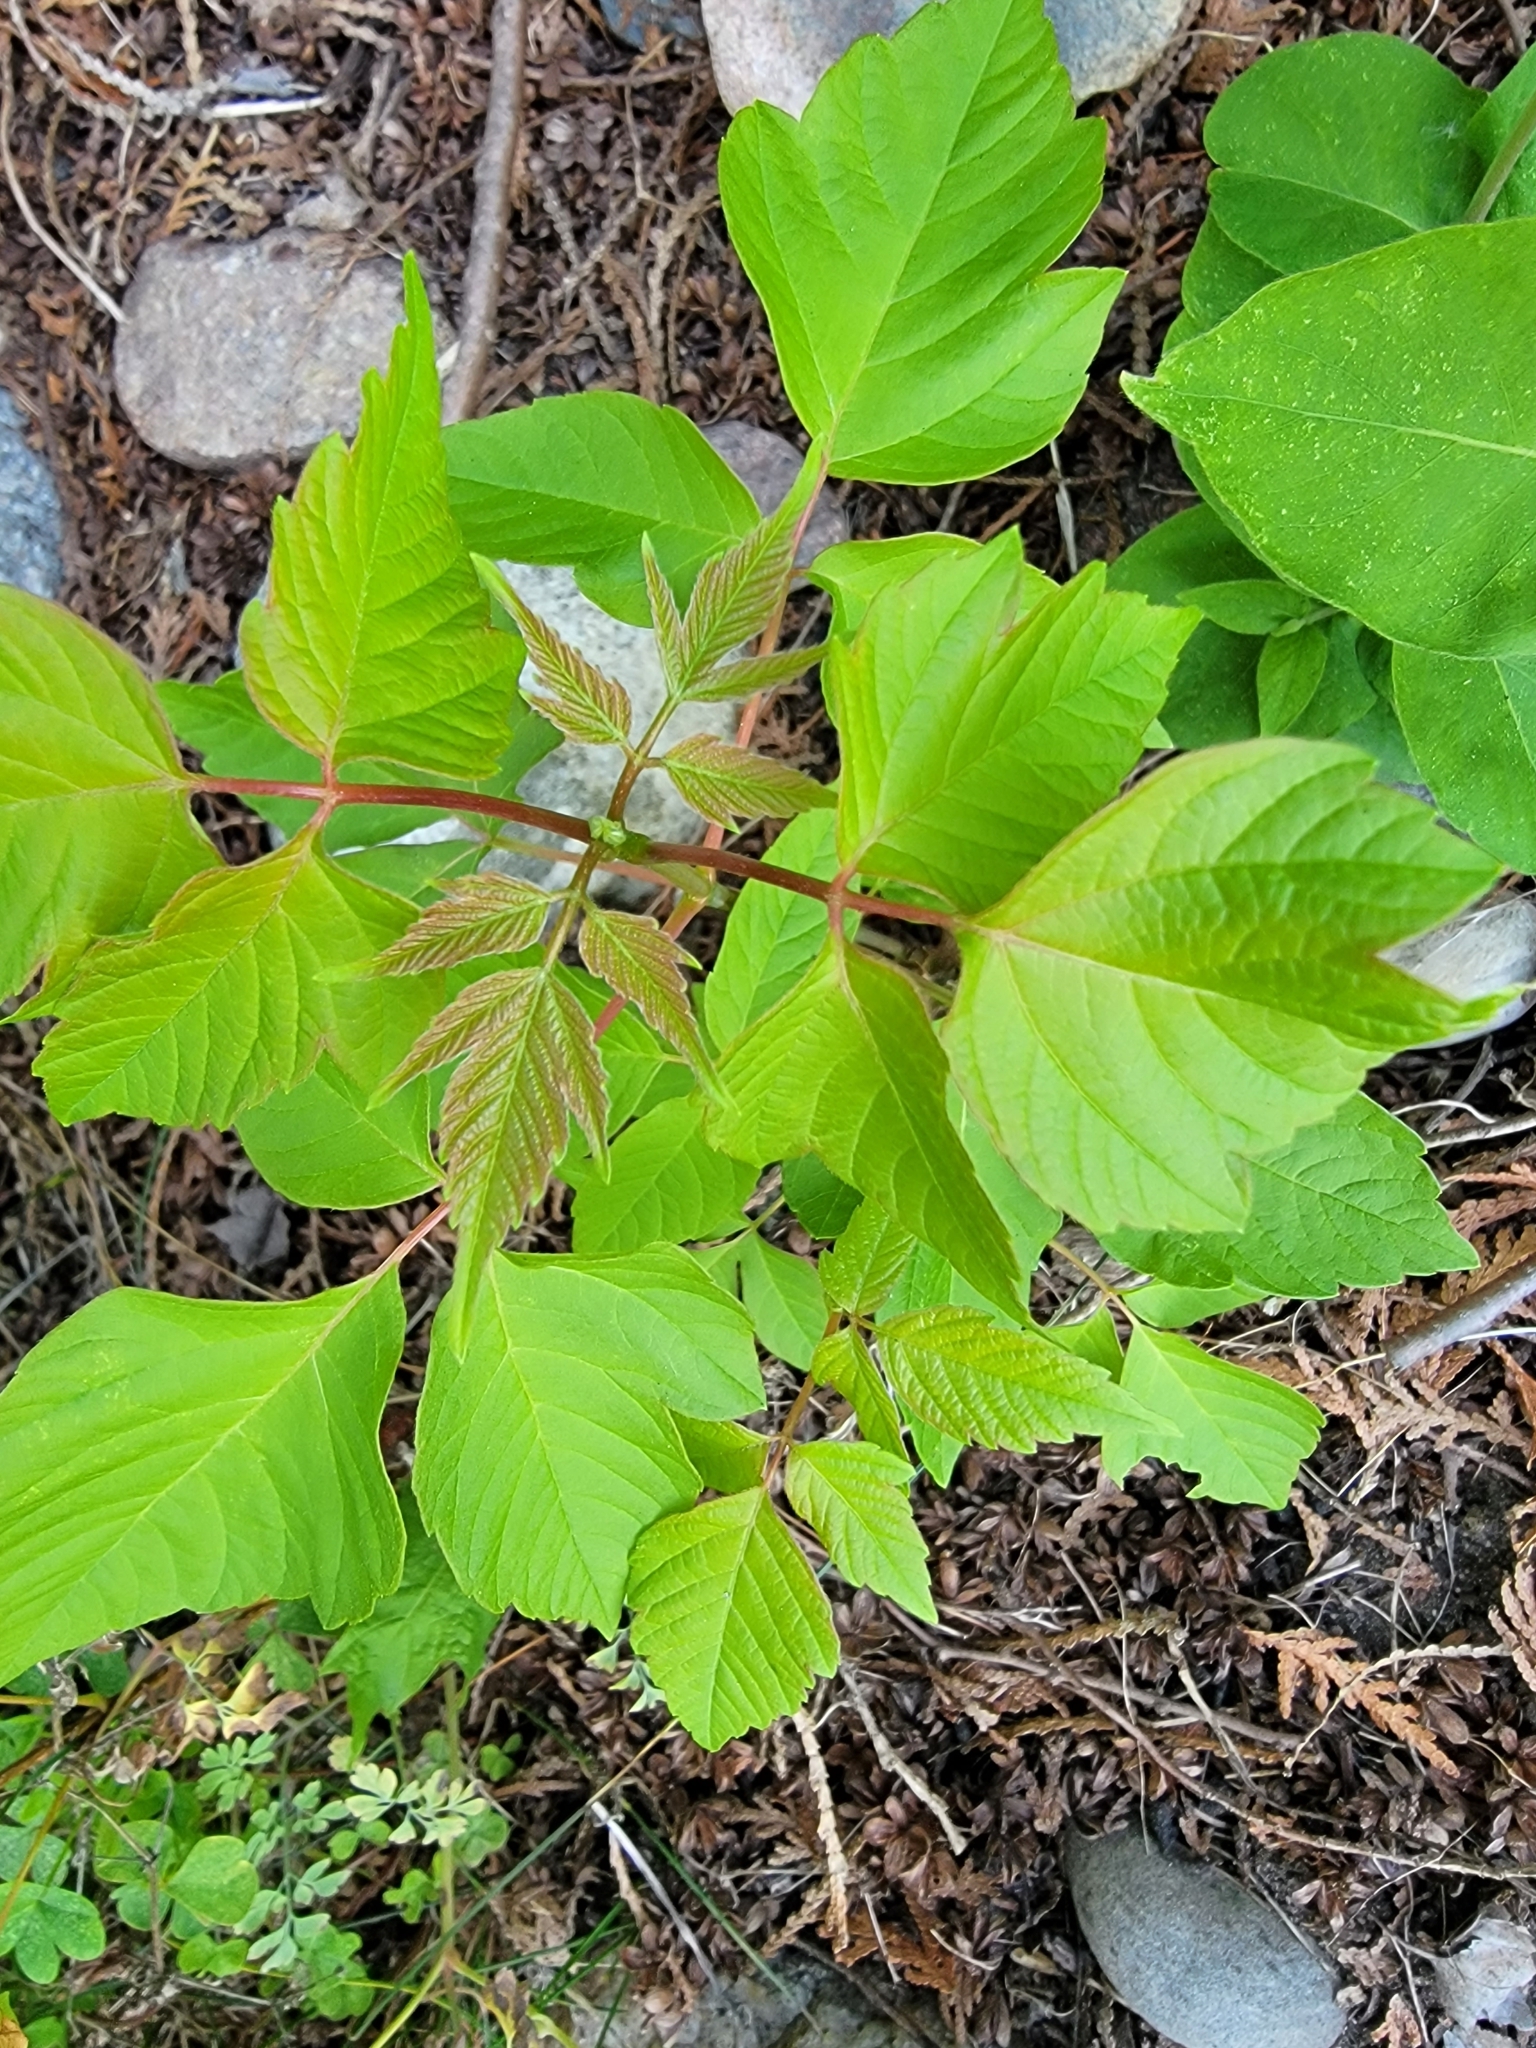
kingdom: Plantae
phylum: Tracheophyta
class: Magnoliopsida
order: Sapindales
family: Sapindaceae
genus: Acer
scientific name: Acer negundo
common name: Ashleaf maple
